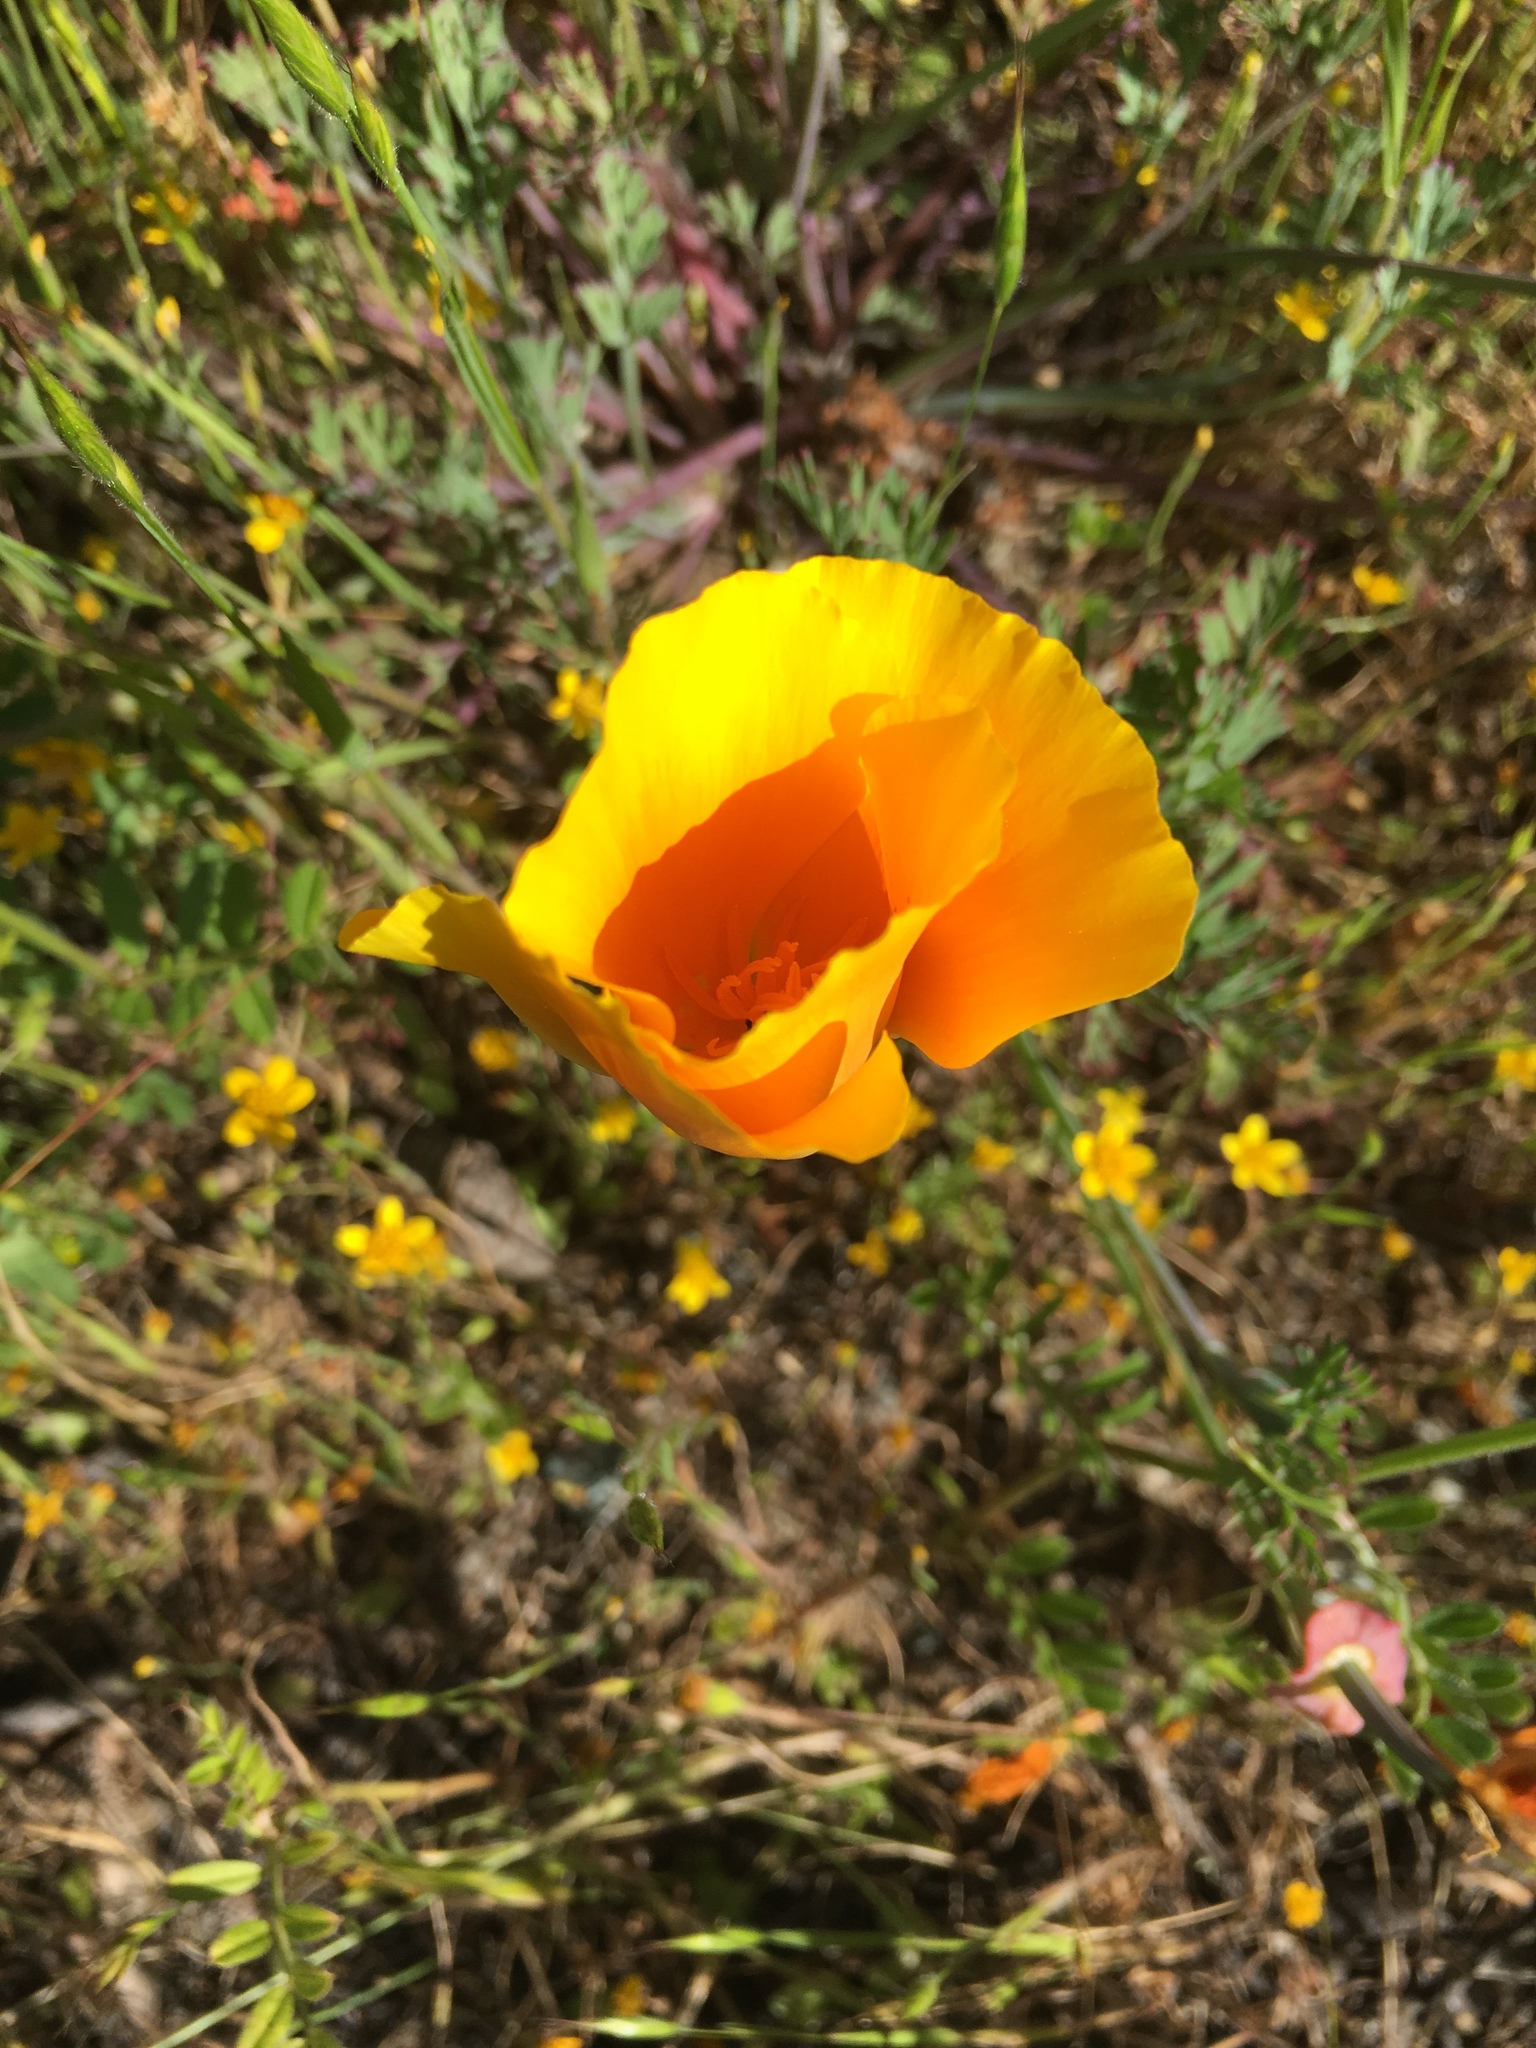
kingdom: Plantae
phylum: Tracheophyta
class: Magnoliopsida
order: Ranunculales
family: Papaveraceae
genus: Eschscholzia
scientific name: Eschscholzia californica
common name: California poppy
